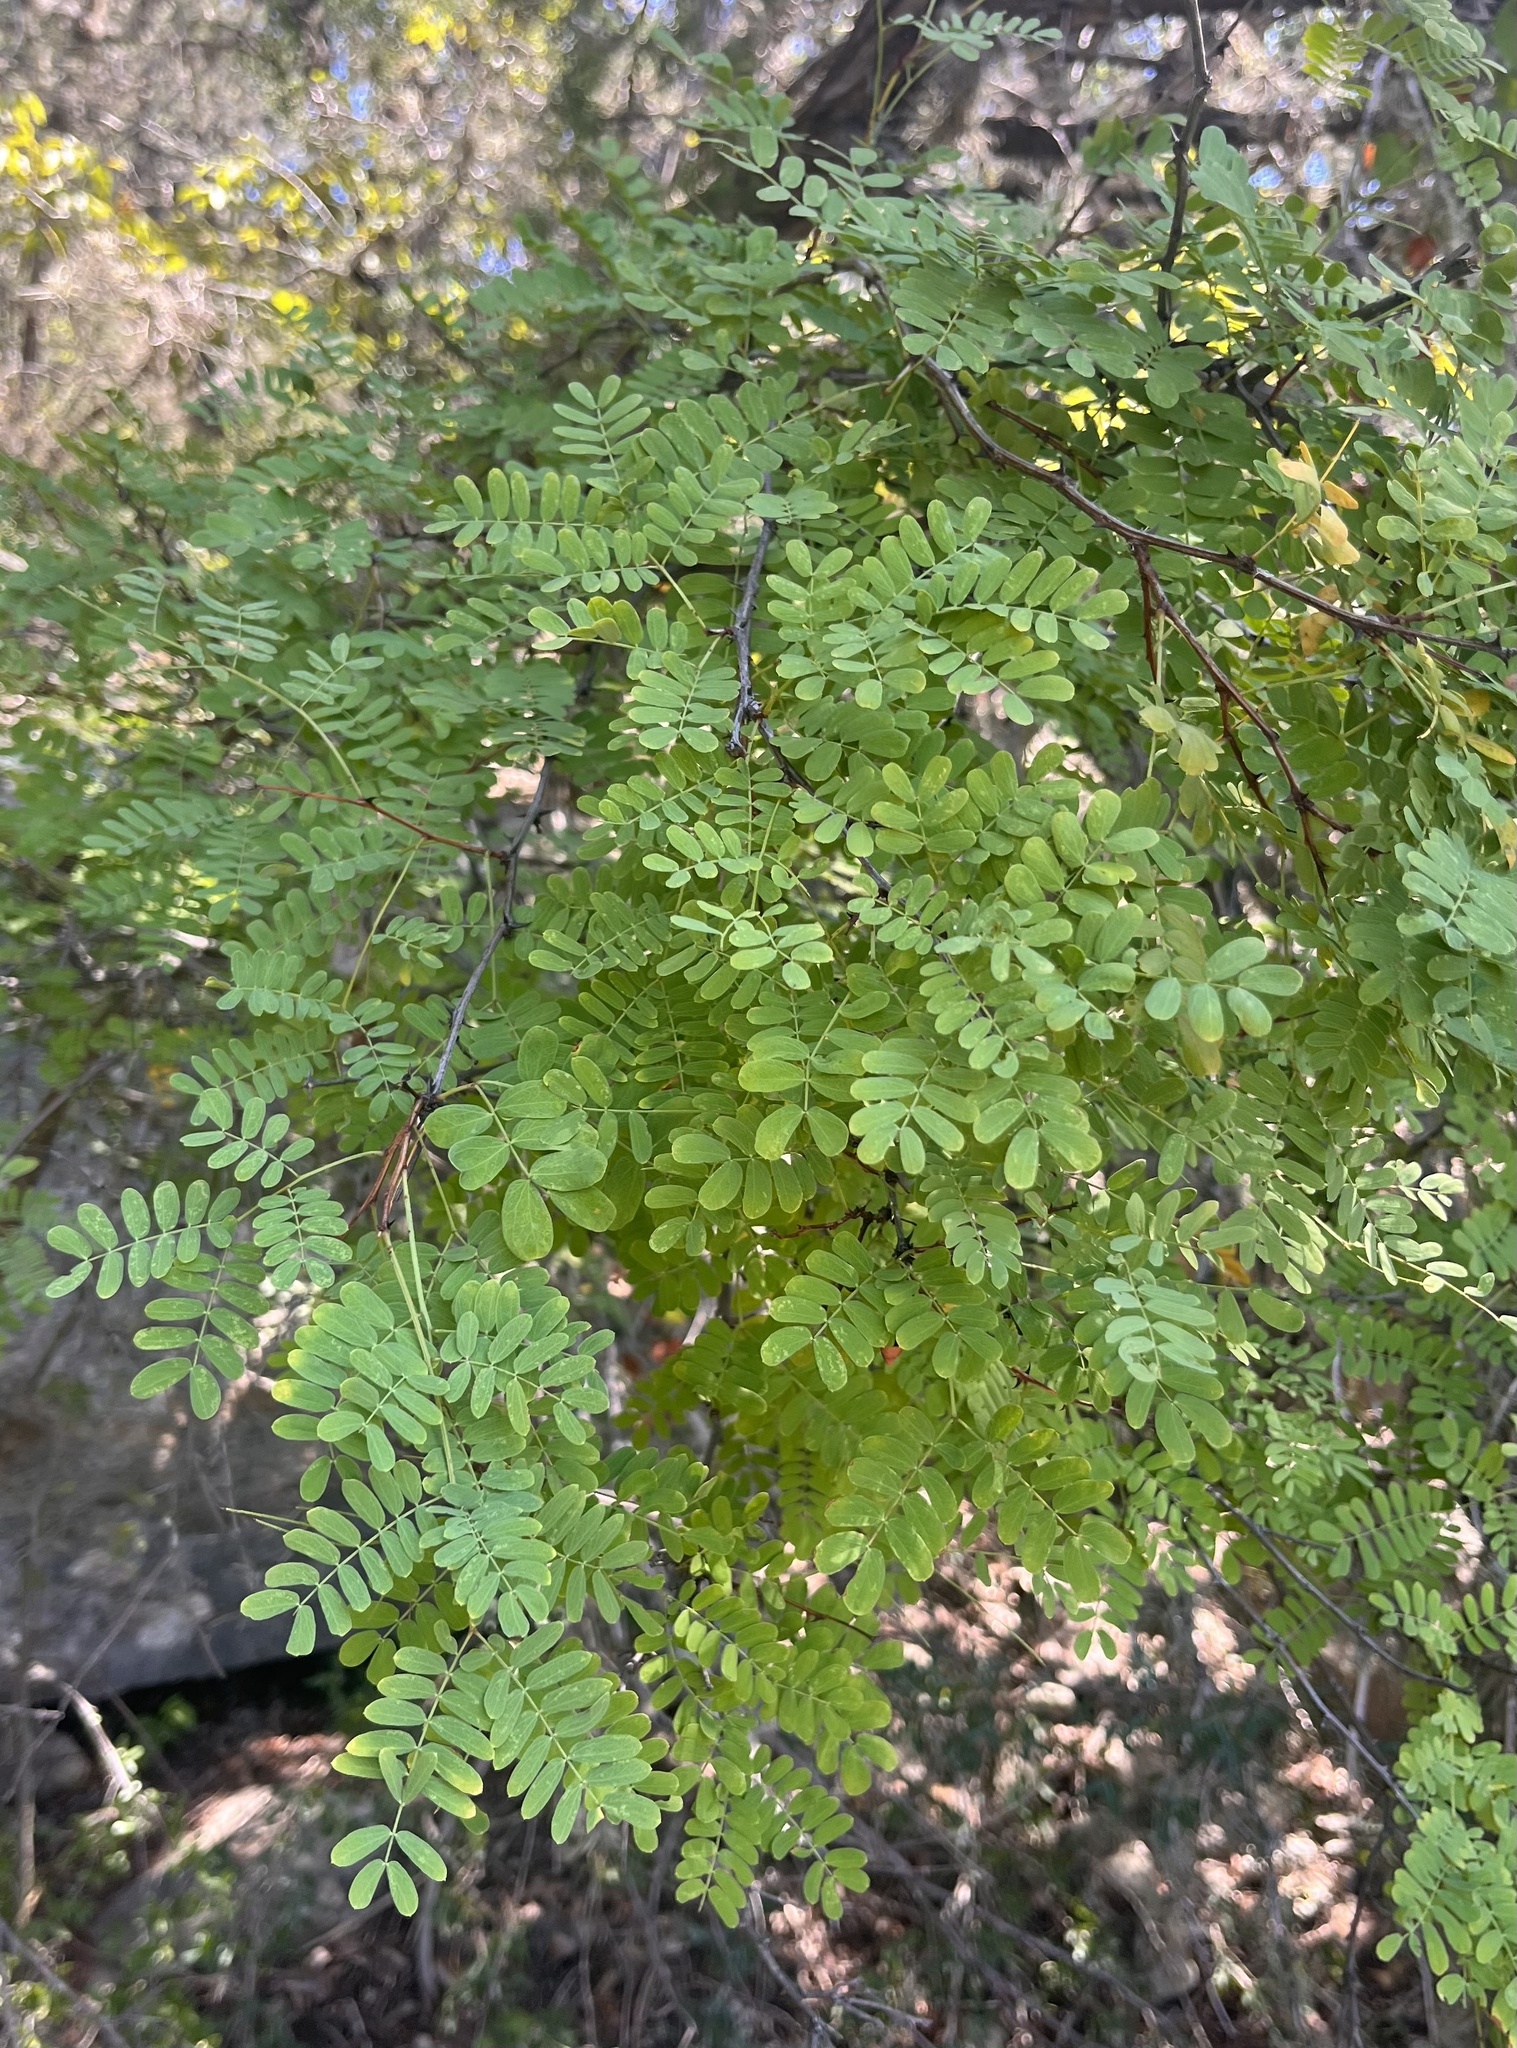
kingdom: Plantae
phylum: Tracheophyta
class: Magnoliopsida
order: Fabales
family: Fabaceae
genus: Senegalia
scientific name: Senegalia roemeriana
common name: Roemer's acacia
